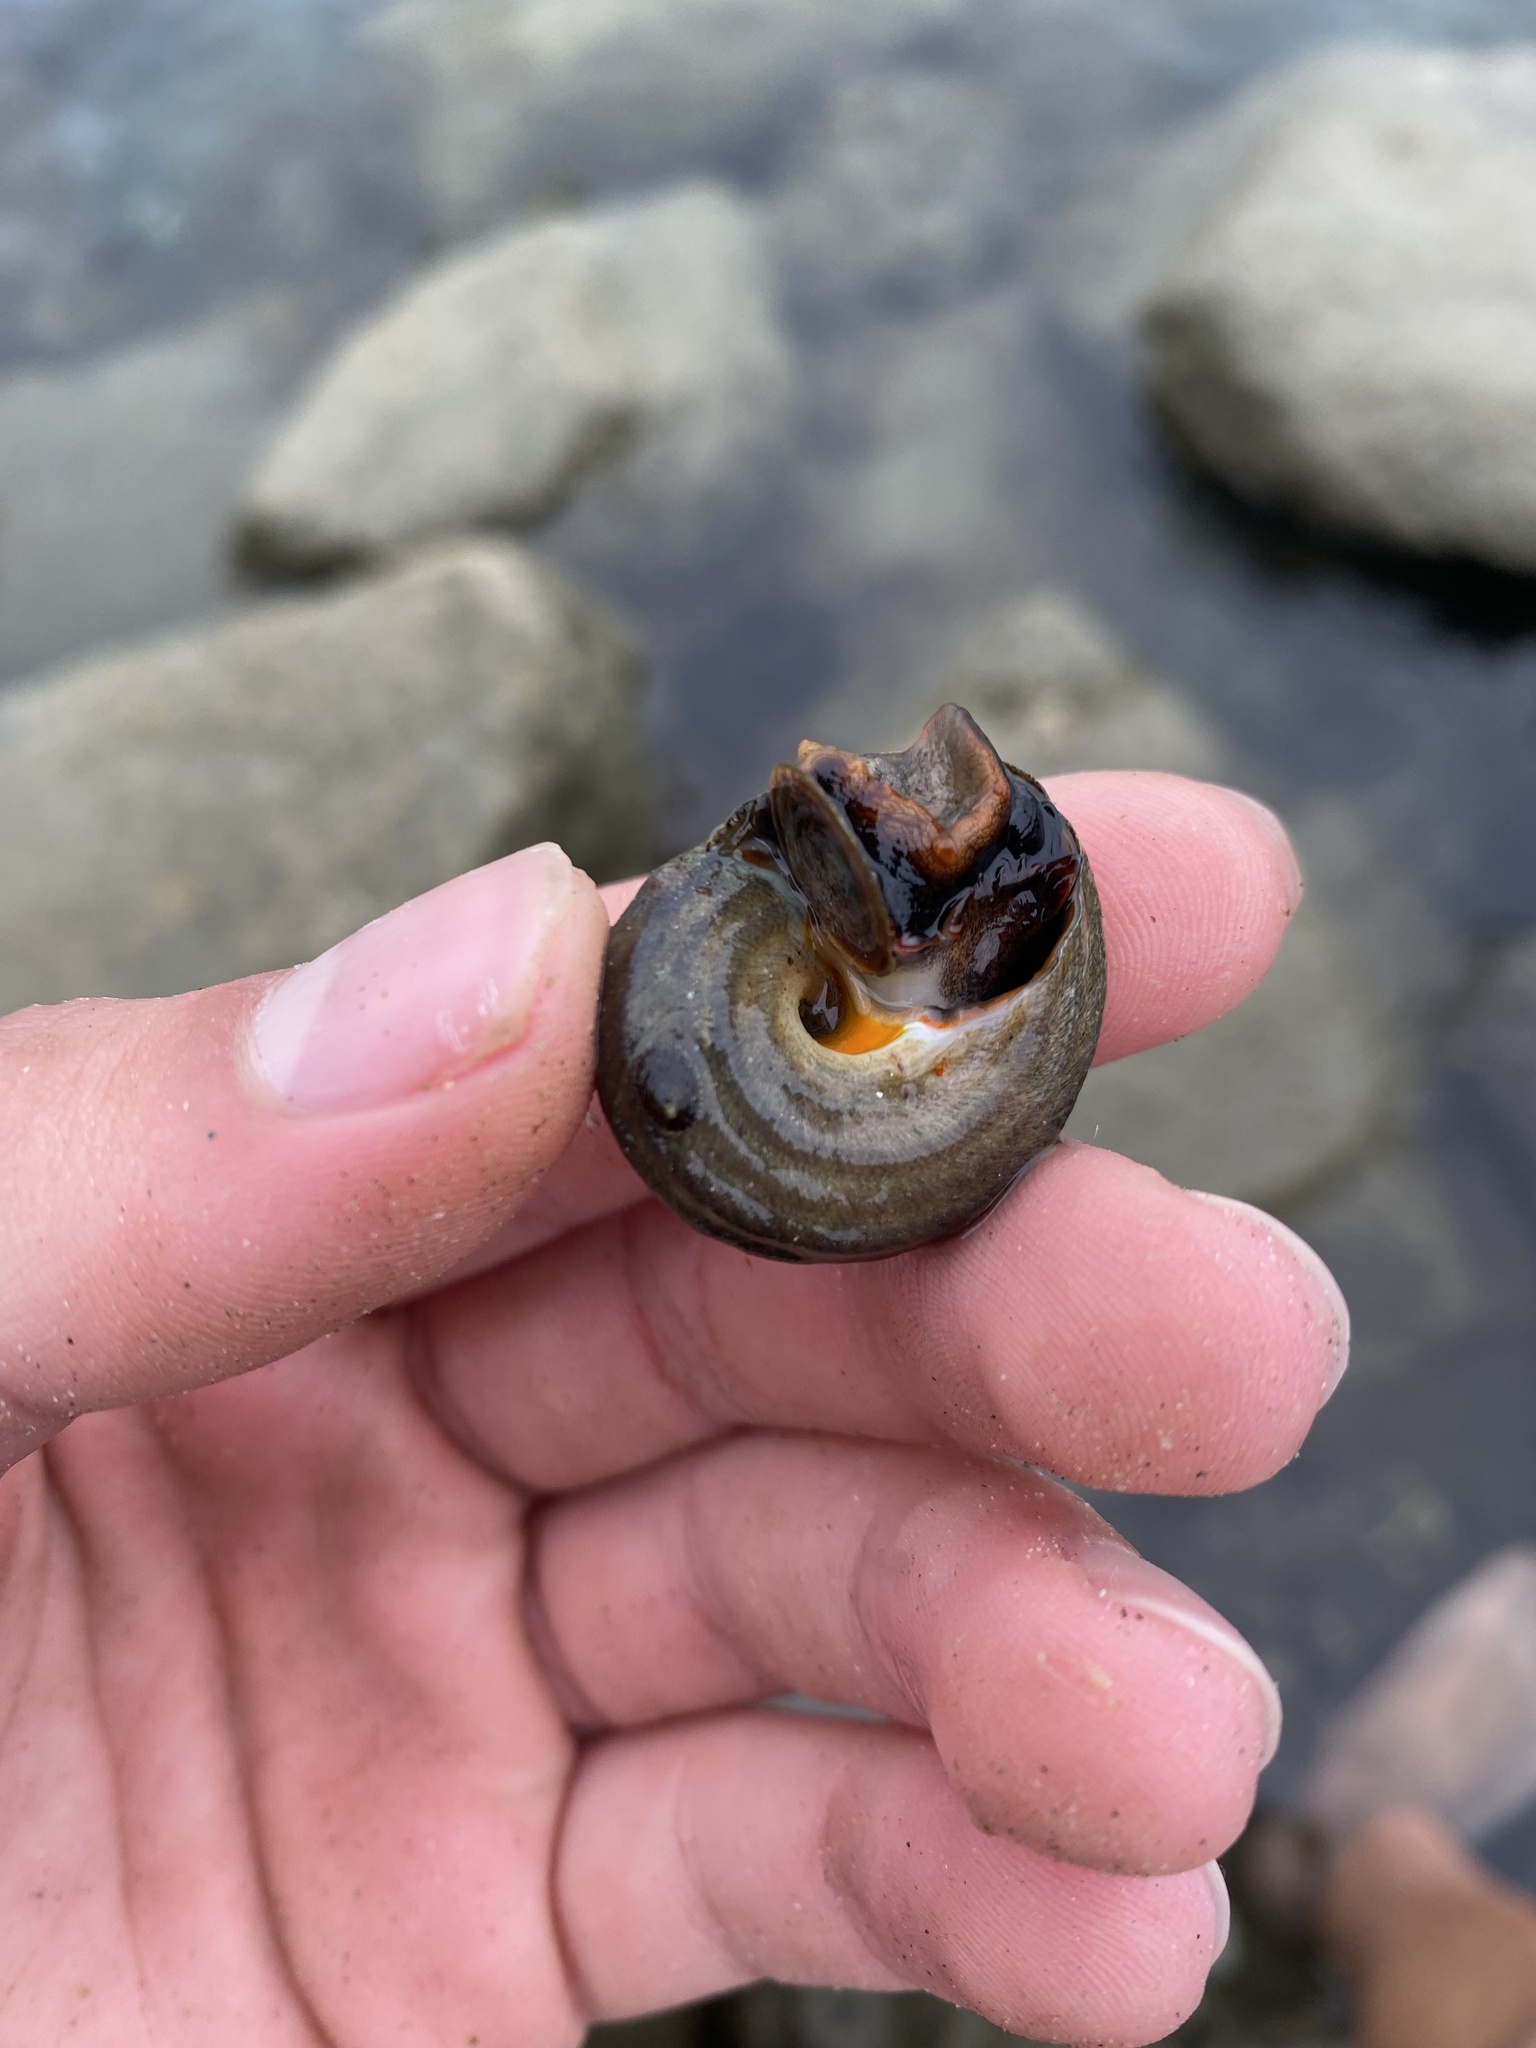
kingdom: Animalia
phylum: Mollusca
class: Gastropoda
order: Trochida
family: Tegulidae
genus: Tegula
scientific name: Tegula aureotincta
